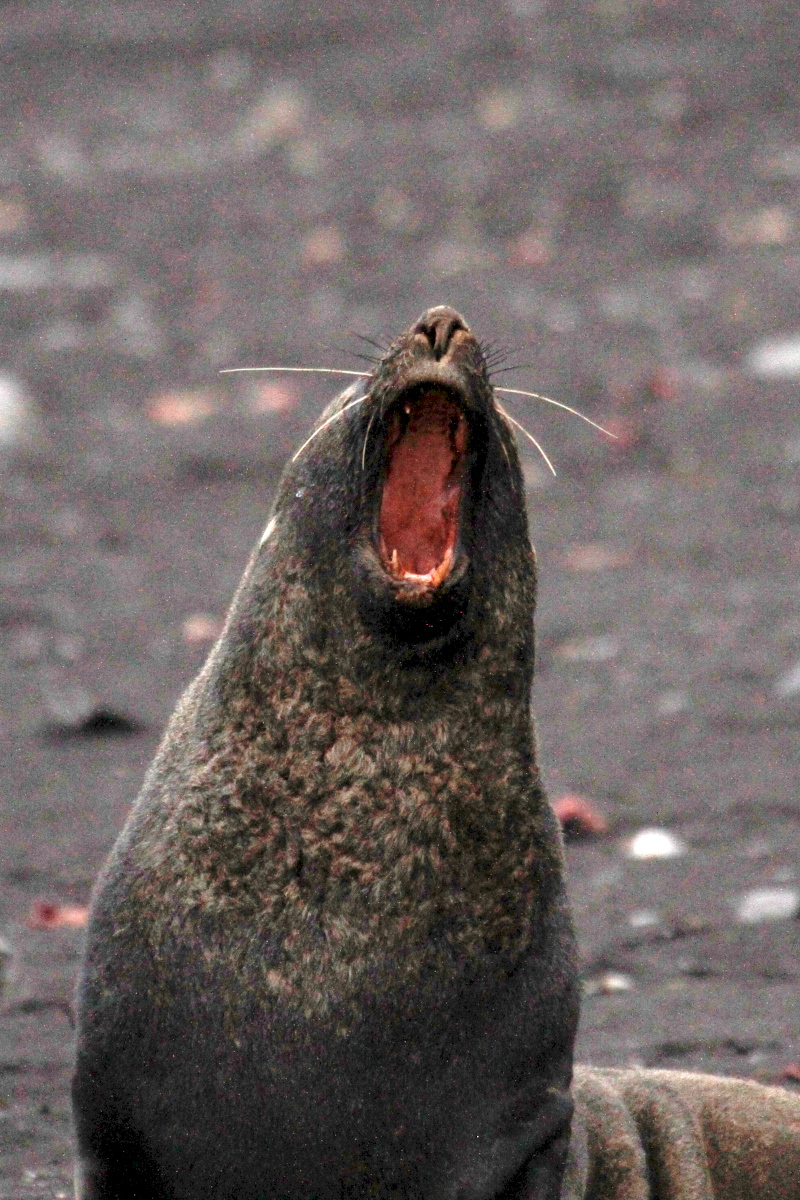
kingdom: Animalia
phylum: Chordata
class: Mammalia
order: Carnivora
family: Otariidae
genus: Arctocephalus
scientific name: Arctocephalus gazella
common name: Antarctic fur seal
